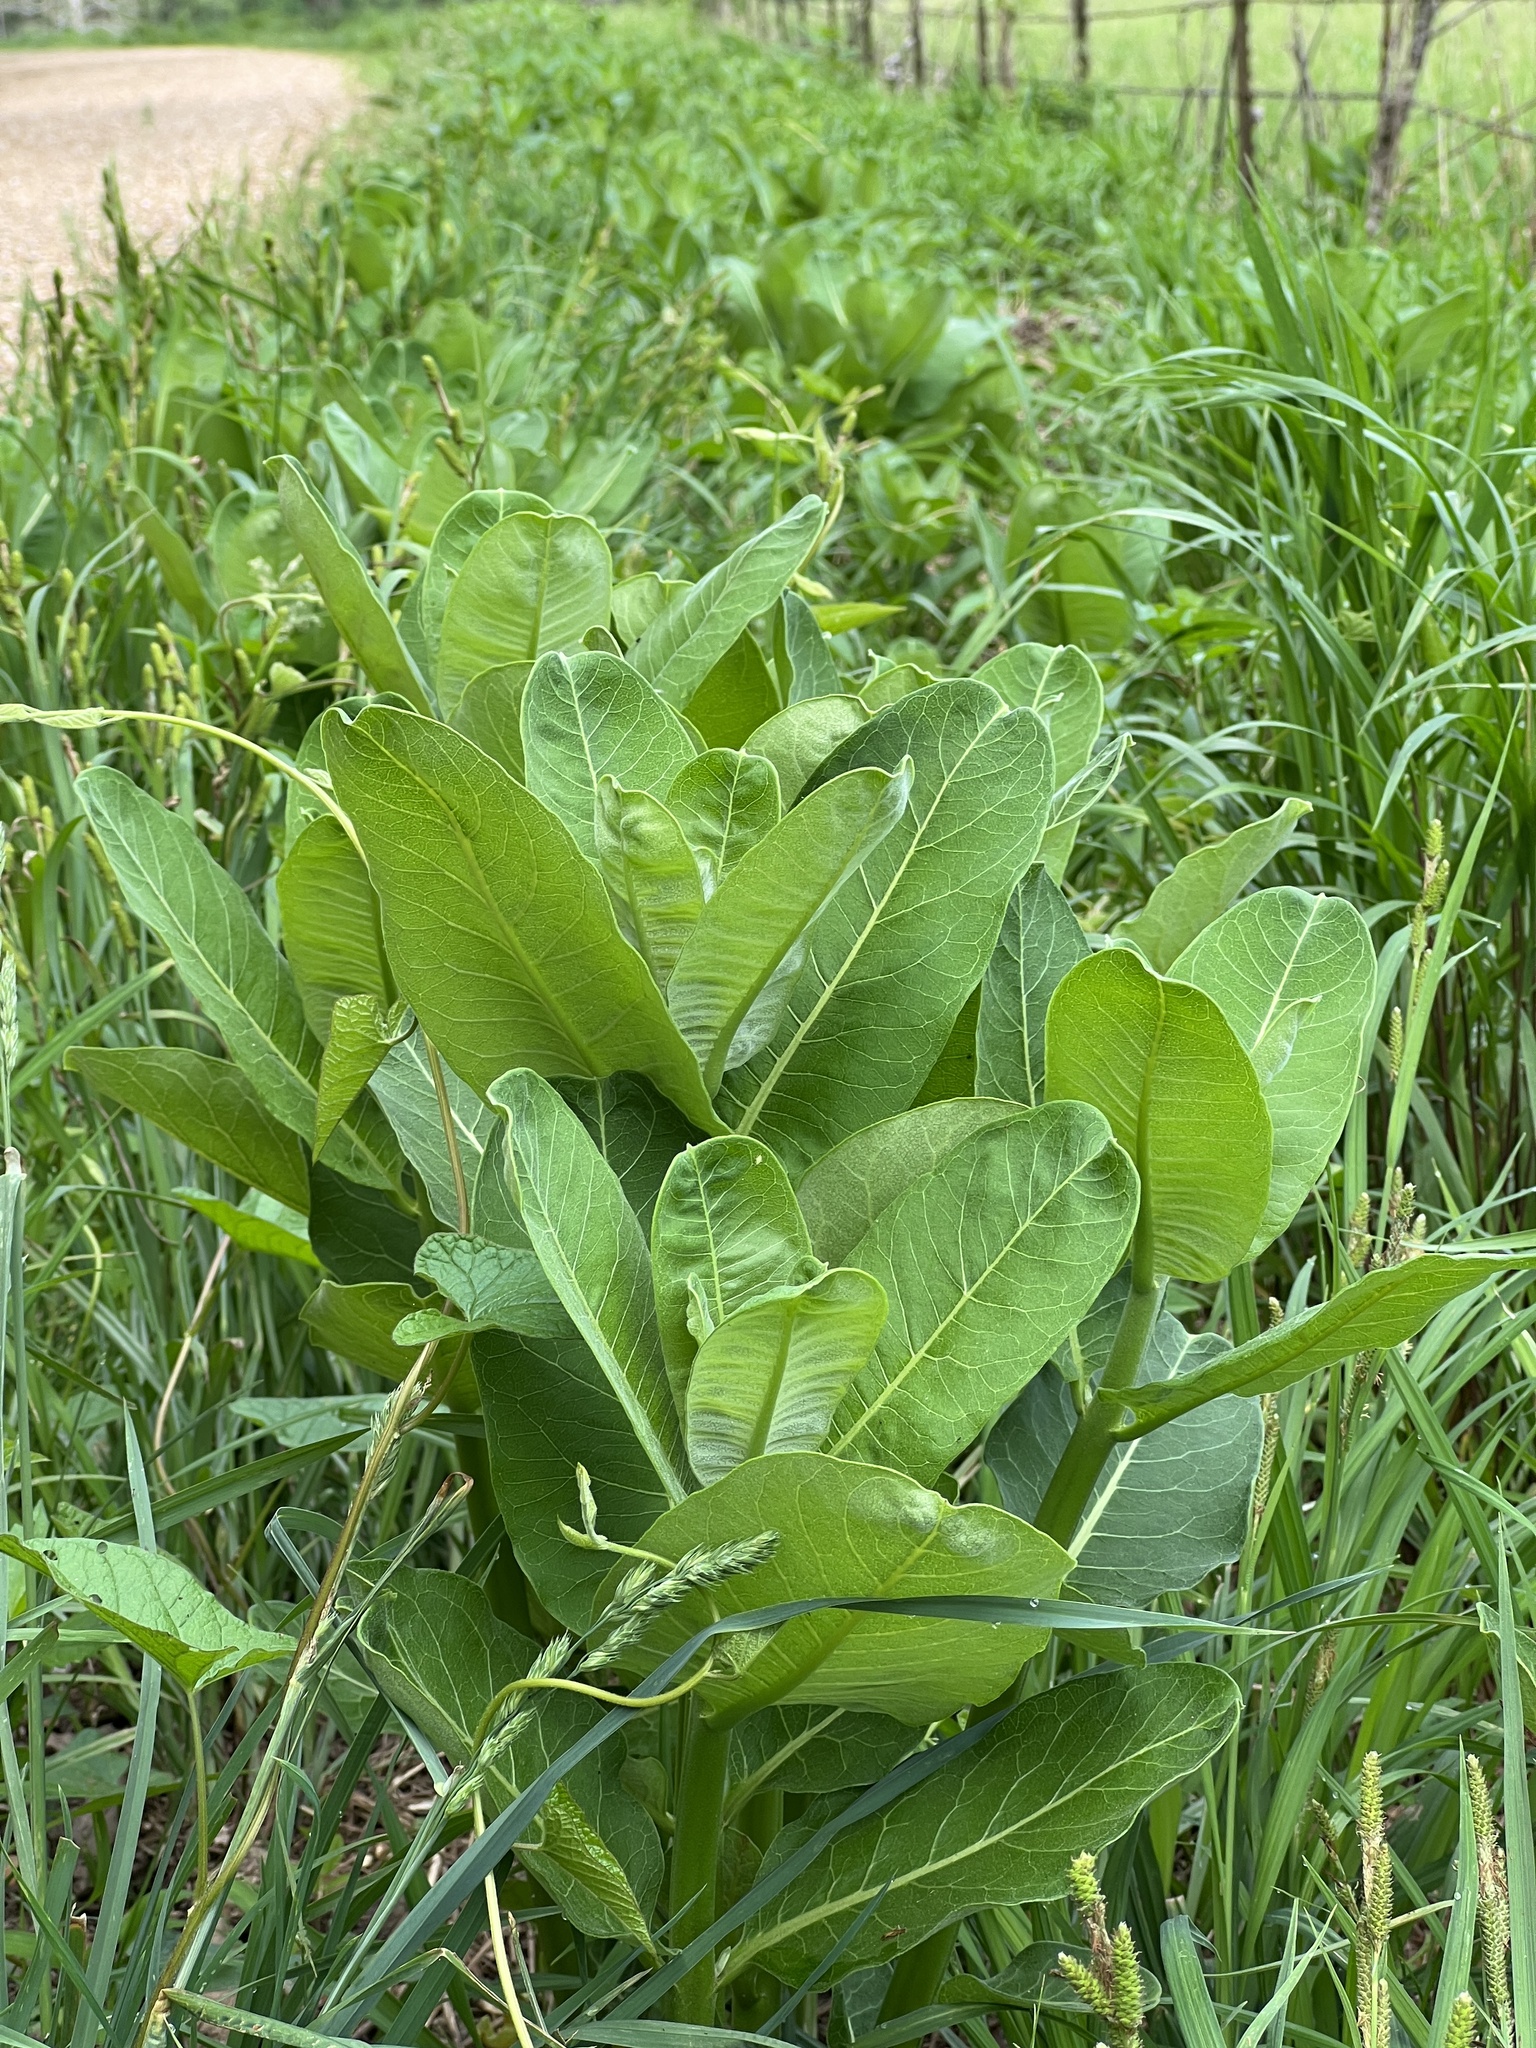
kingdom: Plantae
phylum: Tracheophyta
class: Magnoliopsida
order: Gentianales
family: Apocynaceae
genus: Asclepias
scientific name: Asclepias syriaca
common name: Common milkweed
